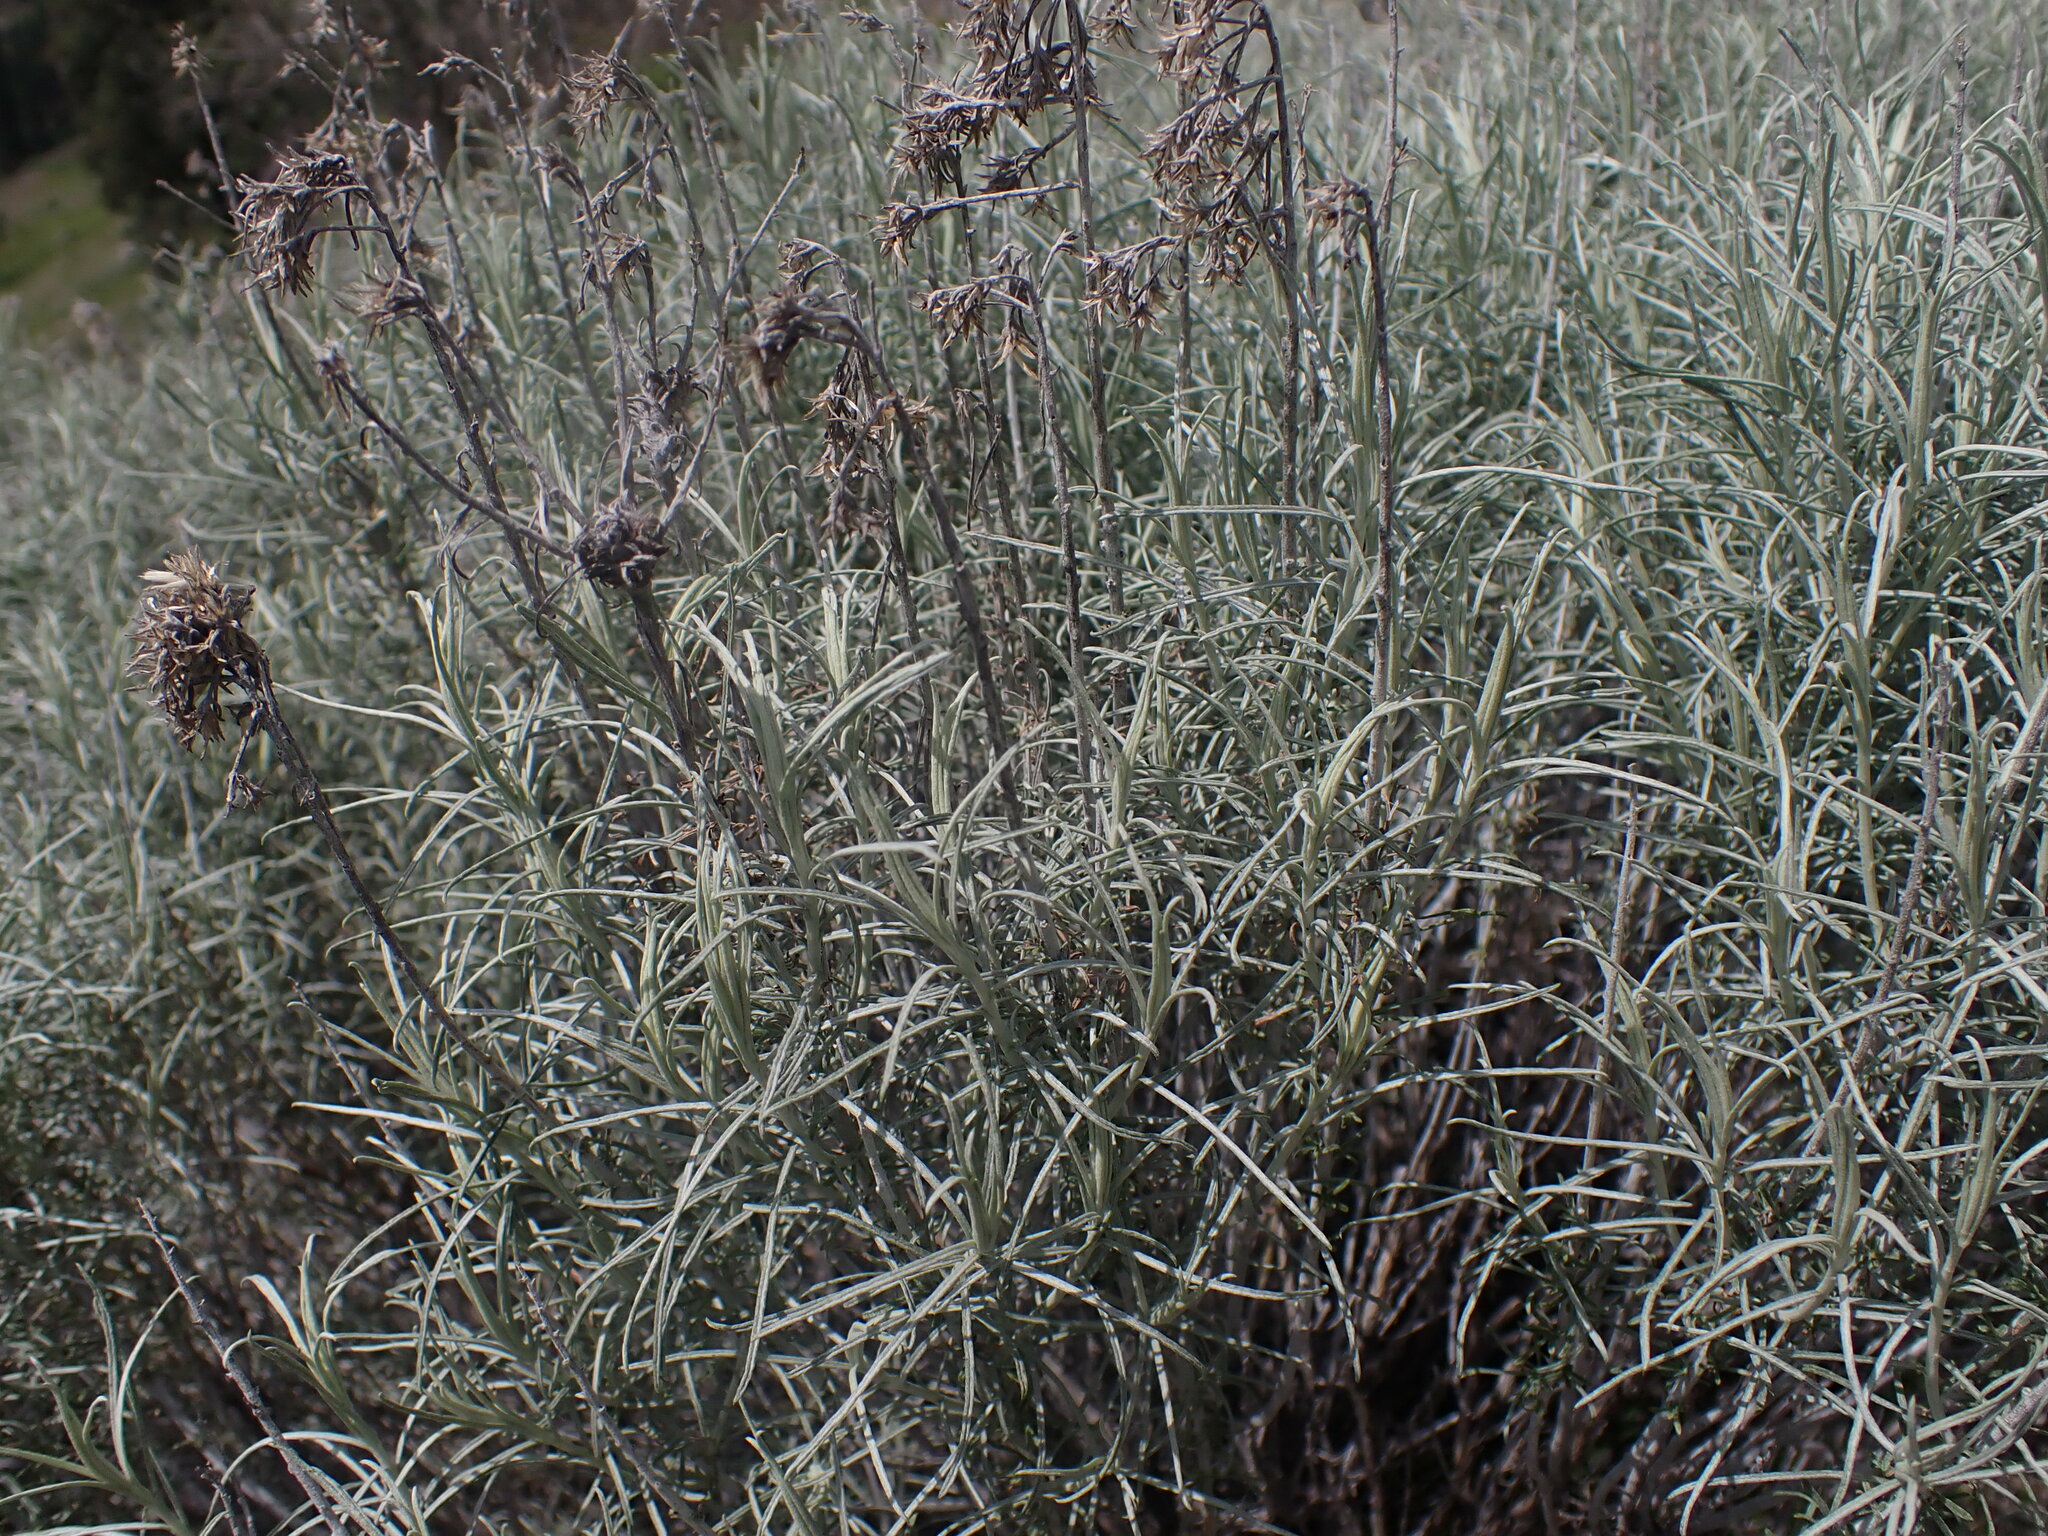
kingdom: Plantae
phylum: Tracheophyta
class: Magnoliopsida
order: Asterales
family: Asteraceae
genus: Ericameria
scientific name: Ericameria nauseosa
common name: Rubber rabbitbrush
